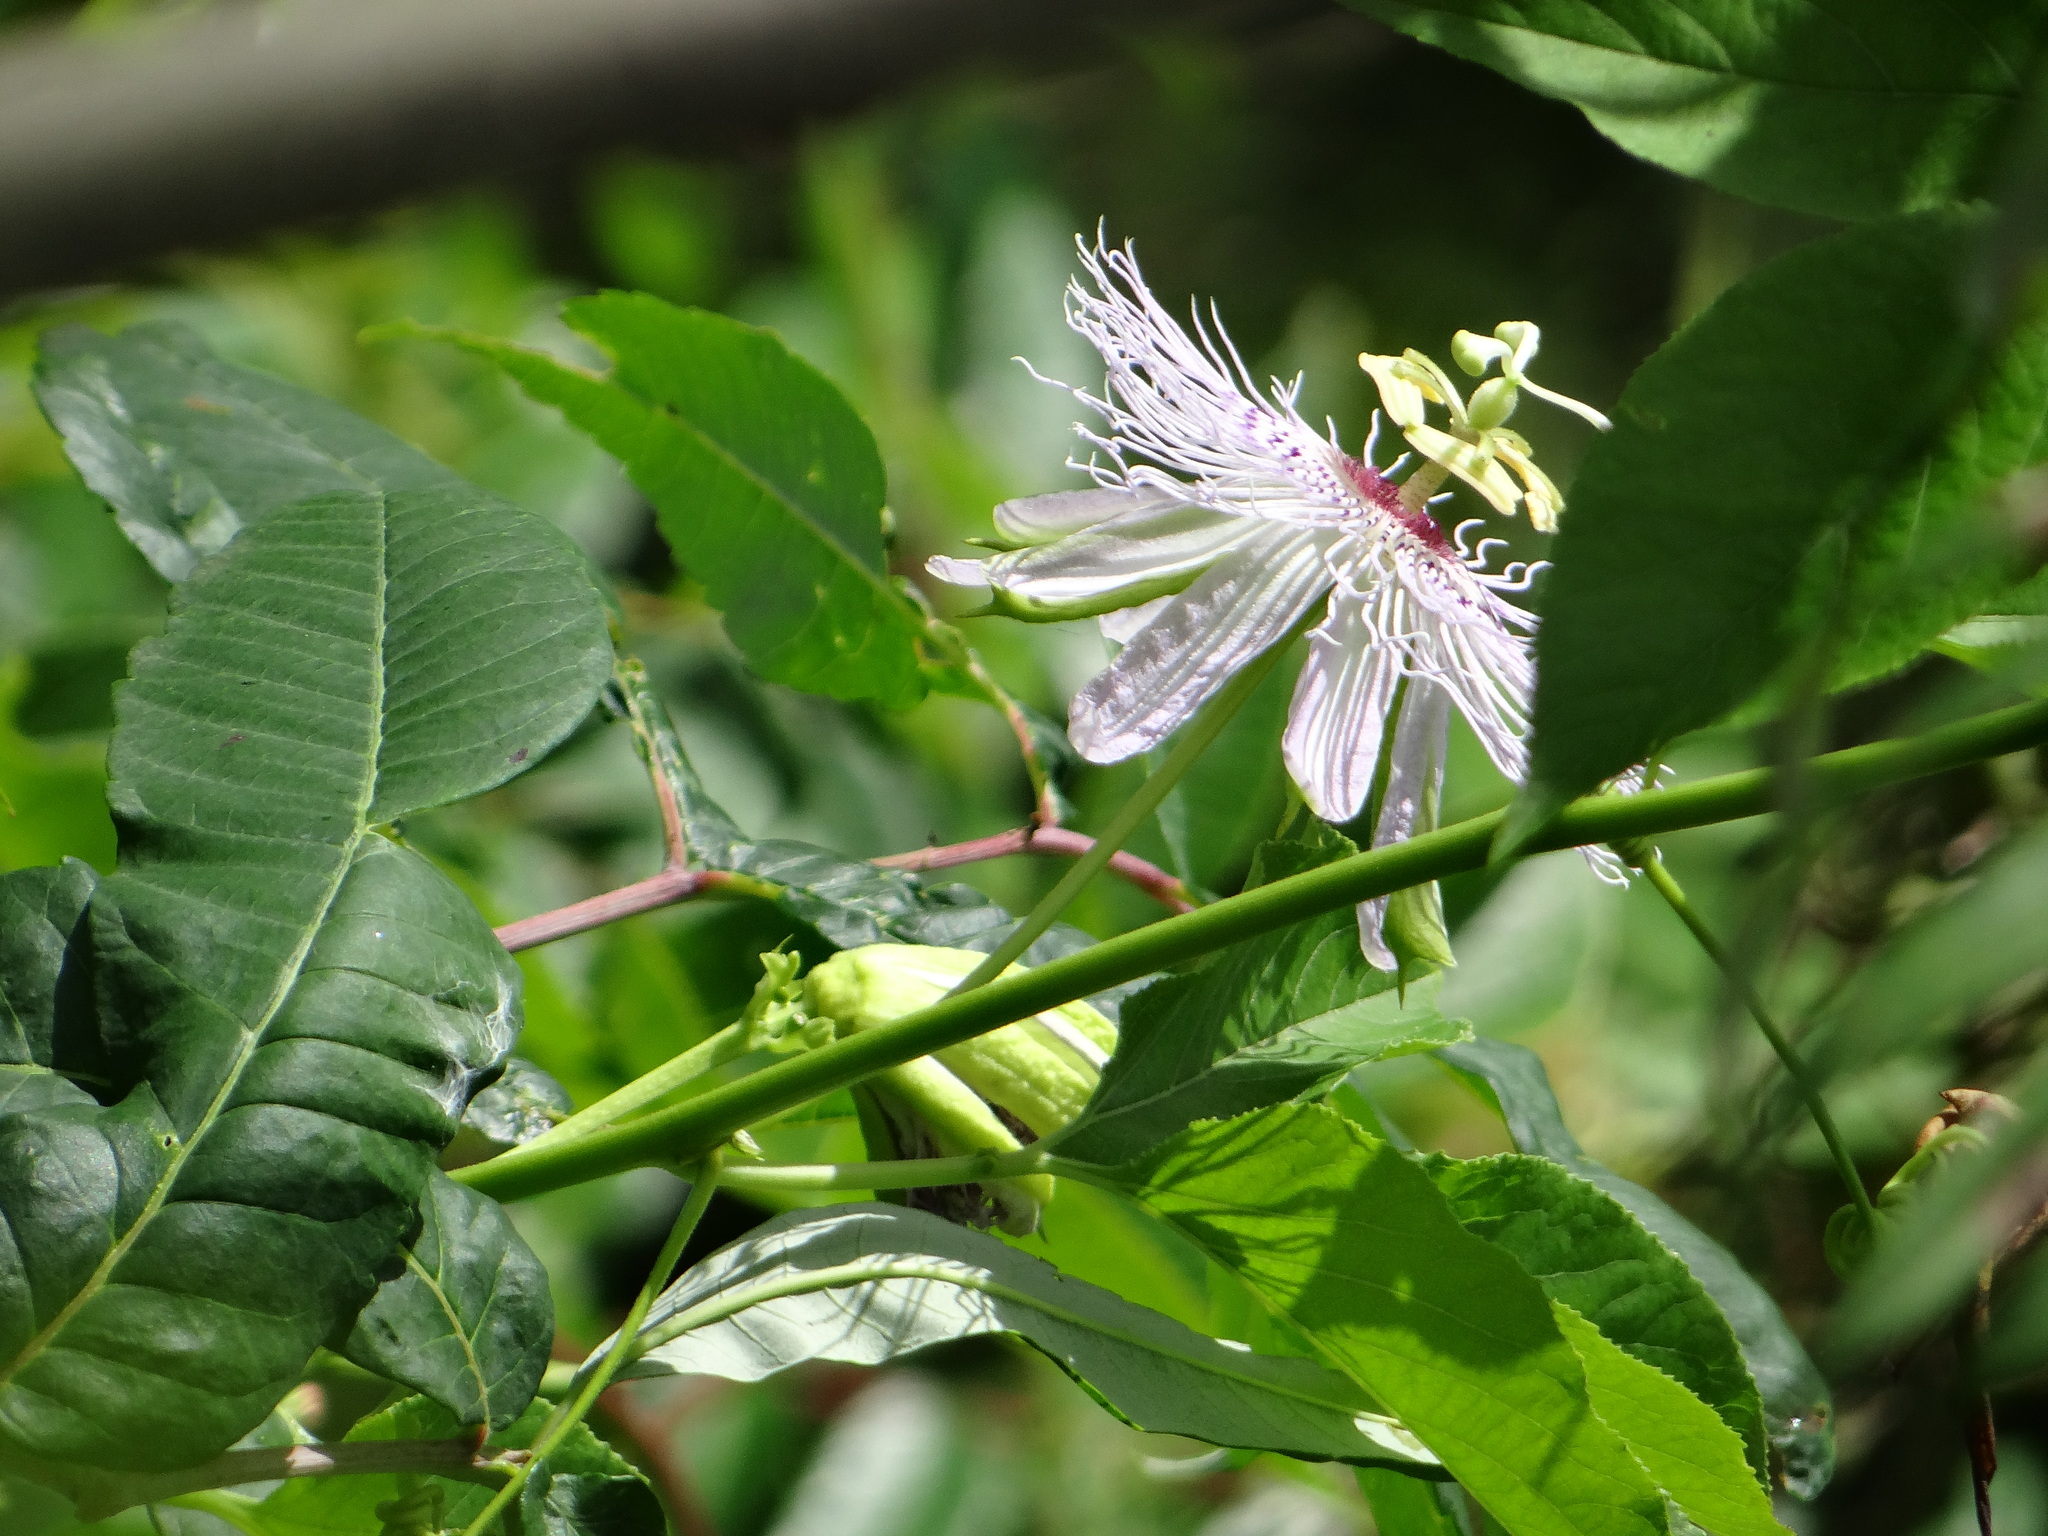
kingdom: Plantae
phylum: Tracheophyta
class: Magnoliopsida
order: Malpighiales
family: Passifloraceae
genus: Passiflora
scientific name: Passiflora incarnata
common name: Apricot-vine
